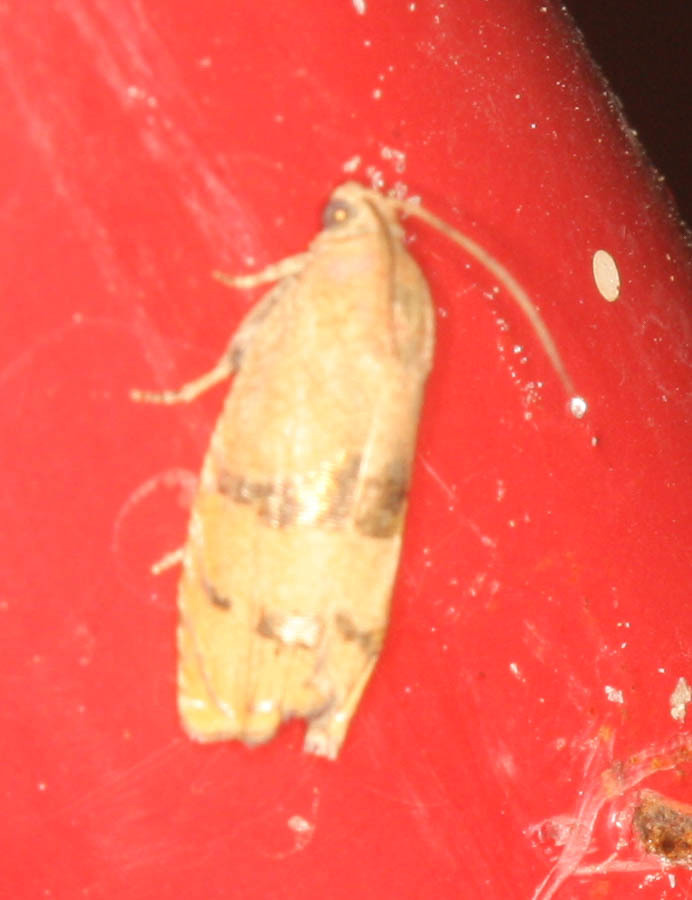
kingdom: Animalia
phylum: Arthropoda
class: Insecta
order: Lepidoptera
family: Tortricidae
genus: Cydia
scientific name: Cydia latiferreana
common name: Filbertworm moth
